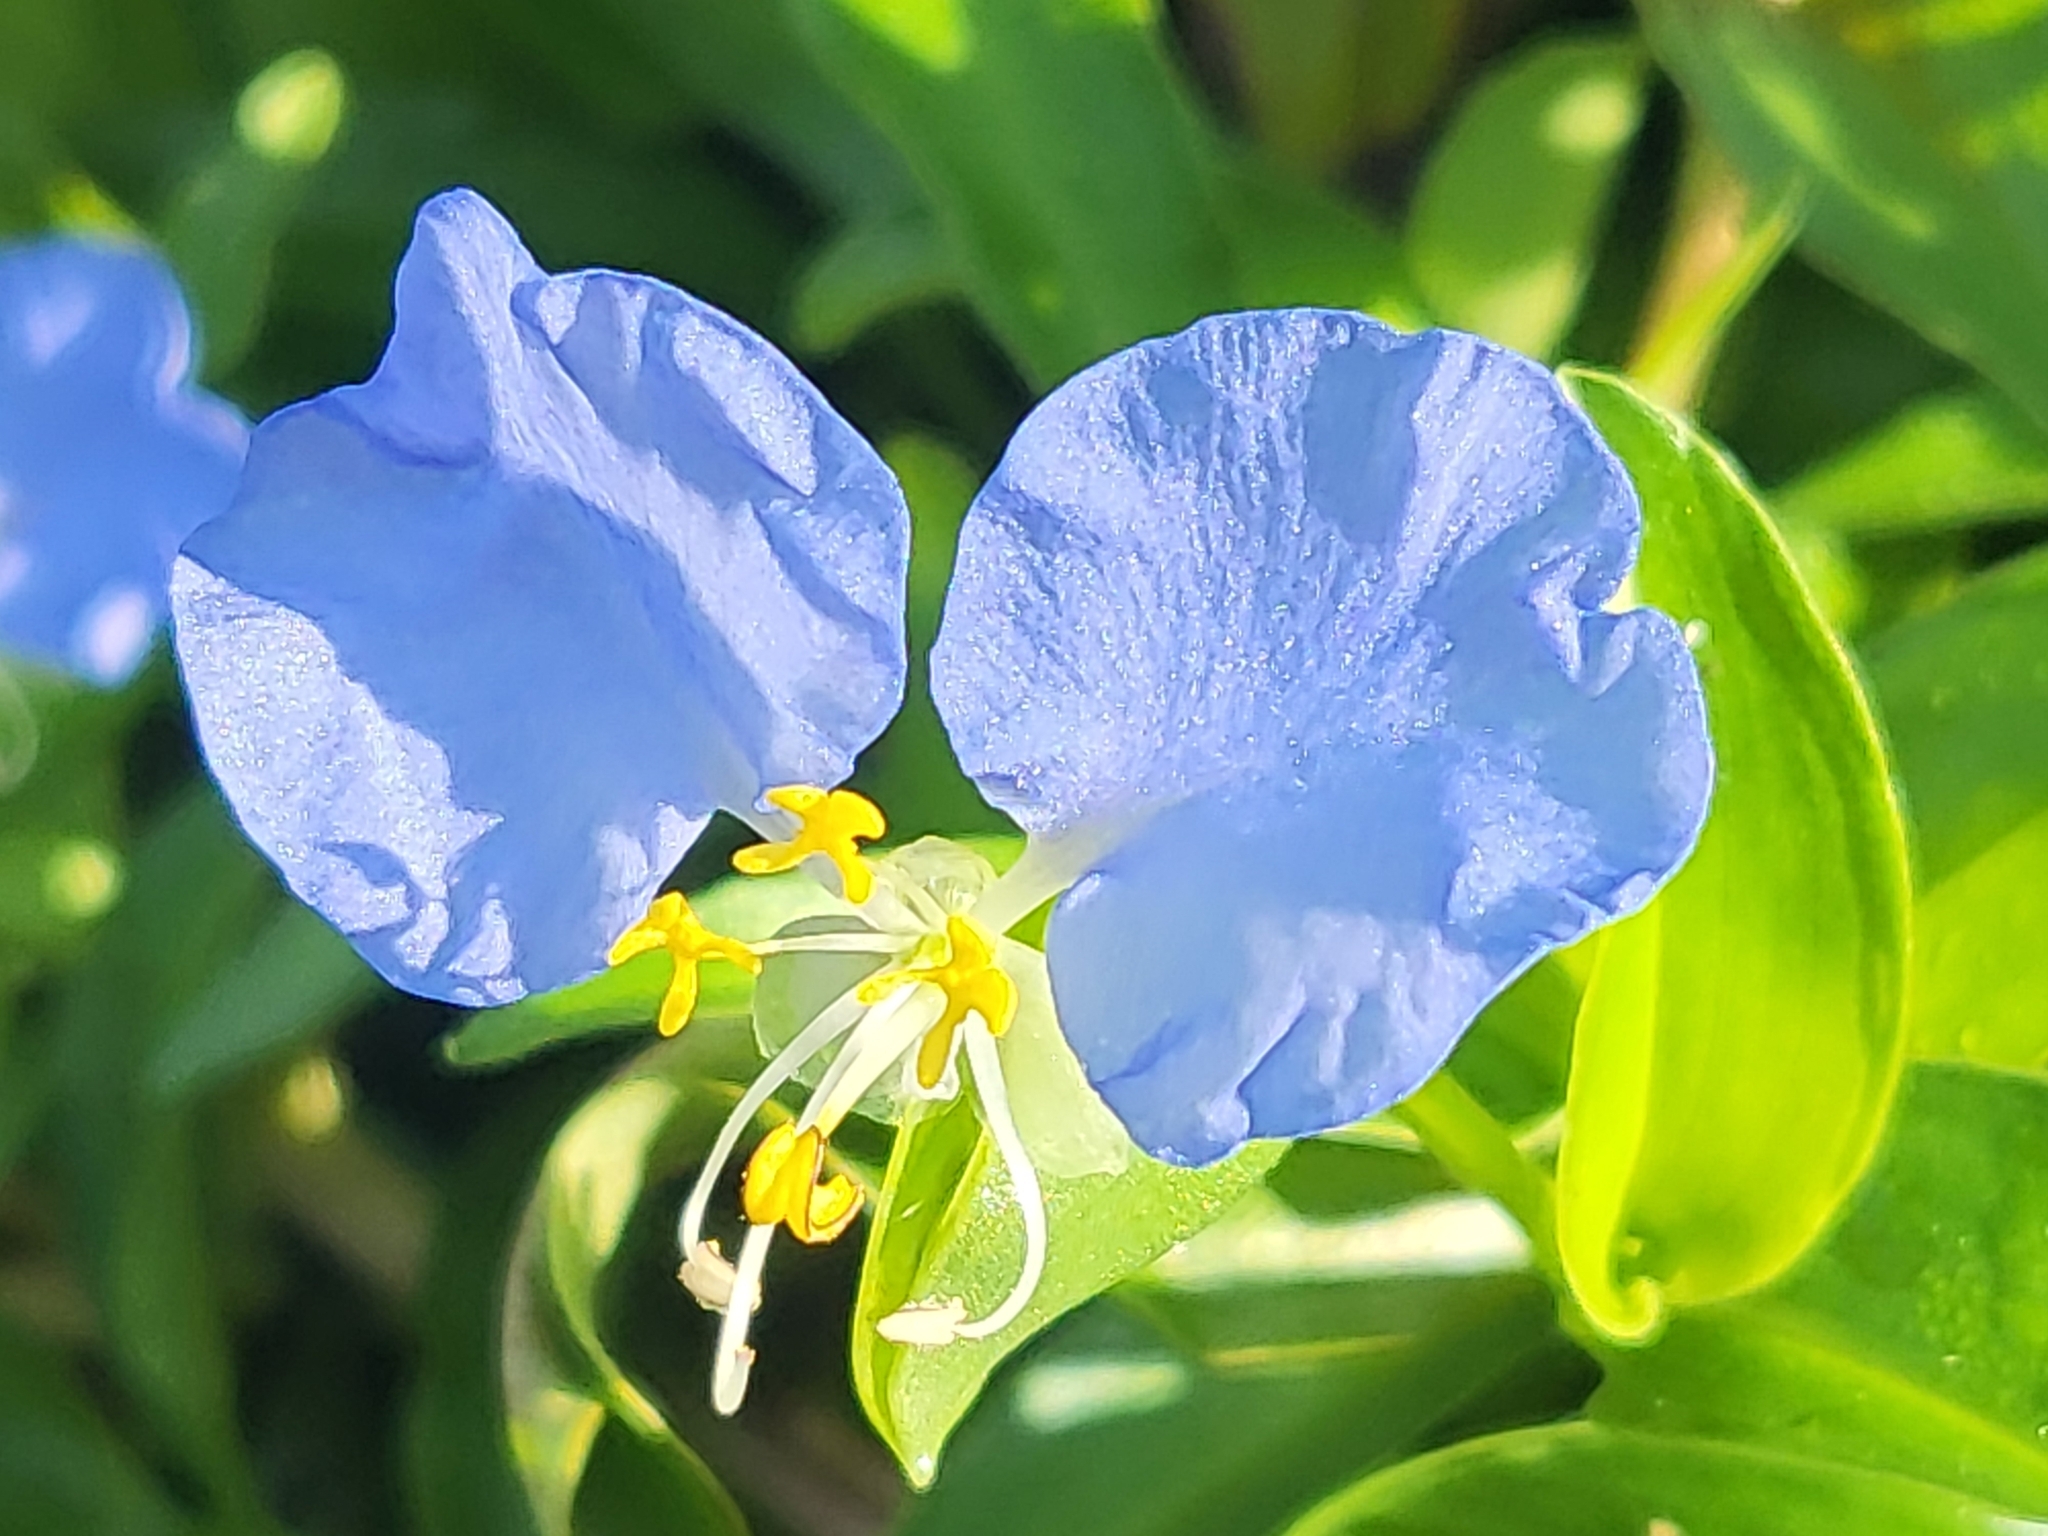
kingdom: Plantae
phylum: Tracheophyta
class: Liliopsida
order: Commelinales
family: Commelinaceae
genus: Commelina
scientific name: Commelina erecta
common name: Blousel blommetjie
